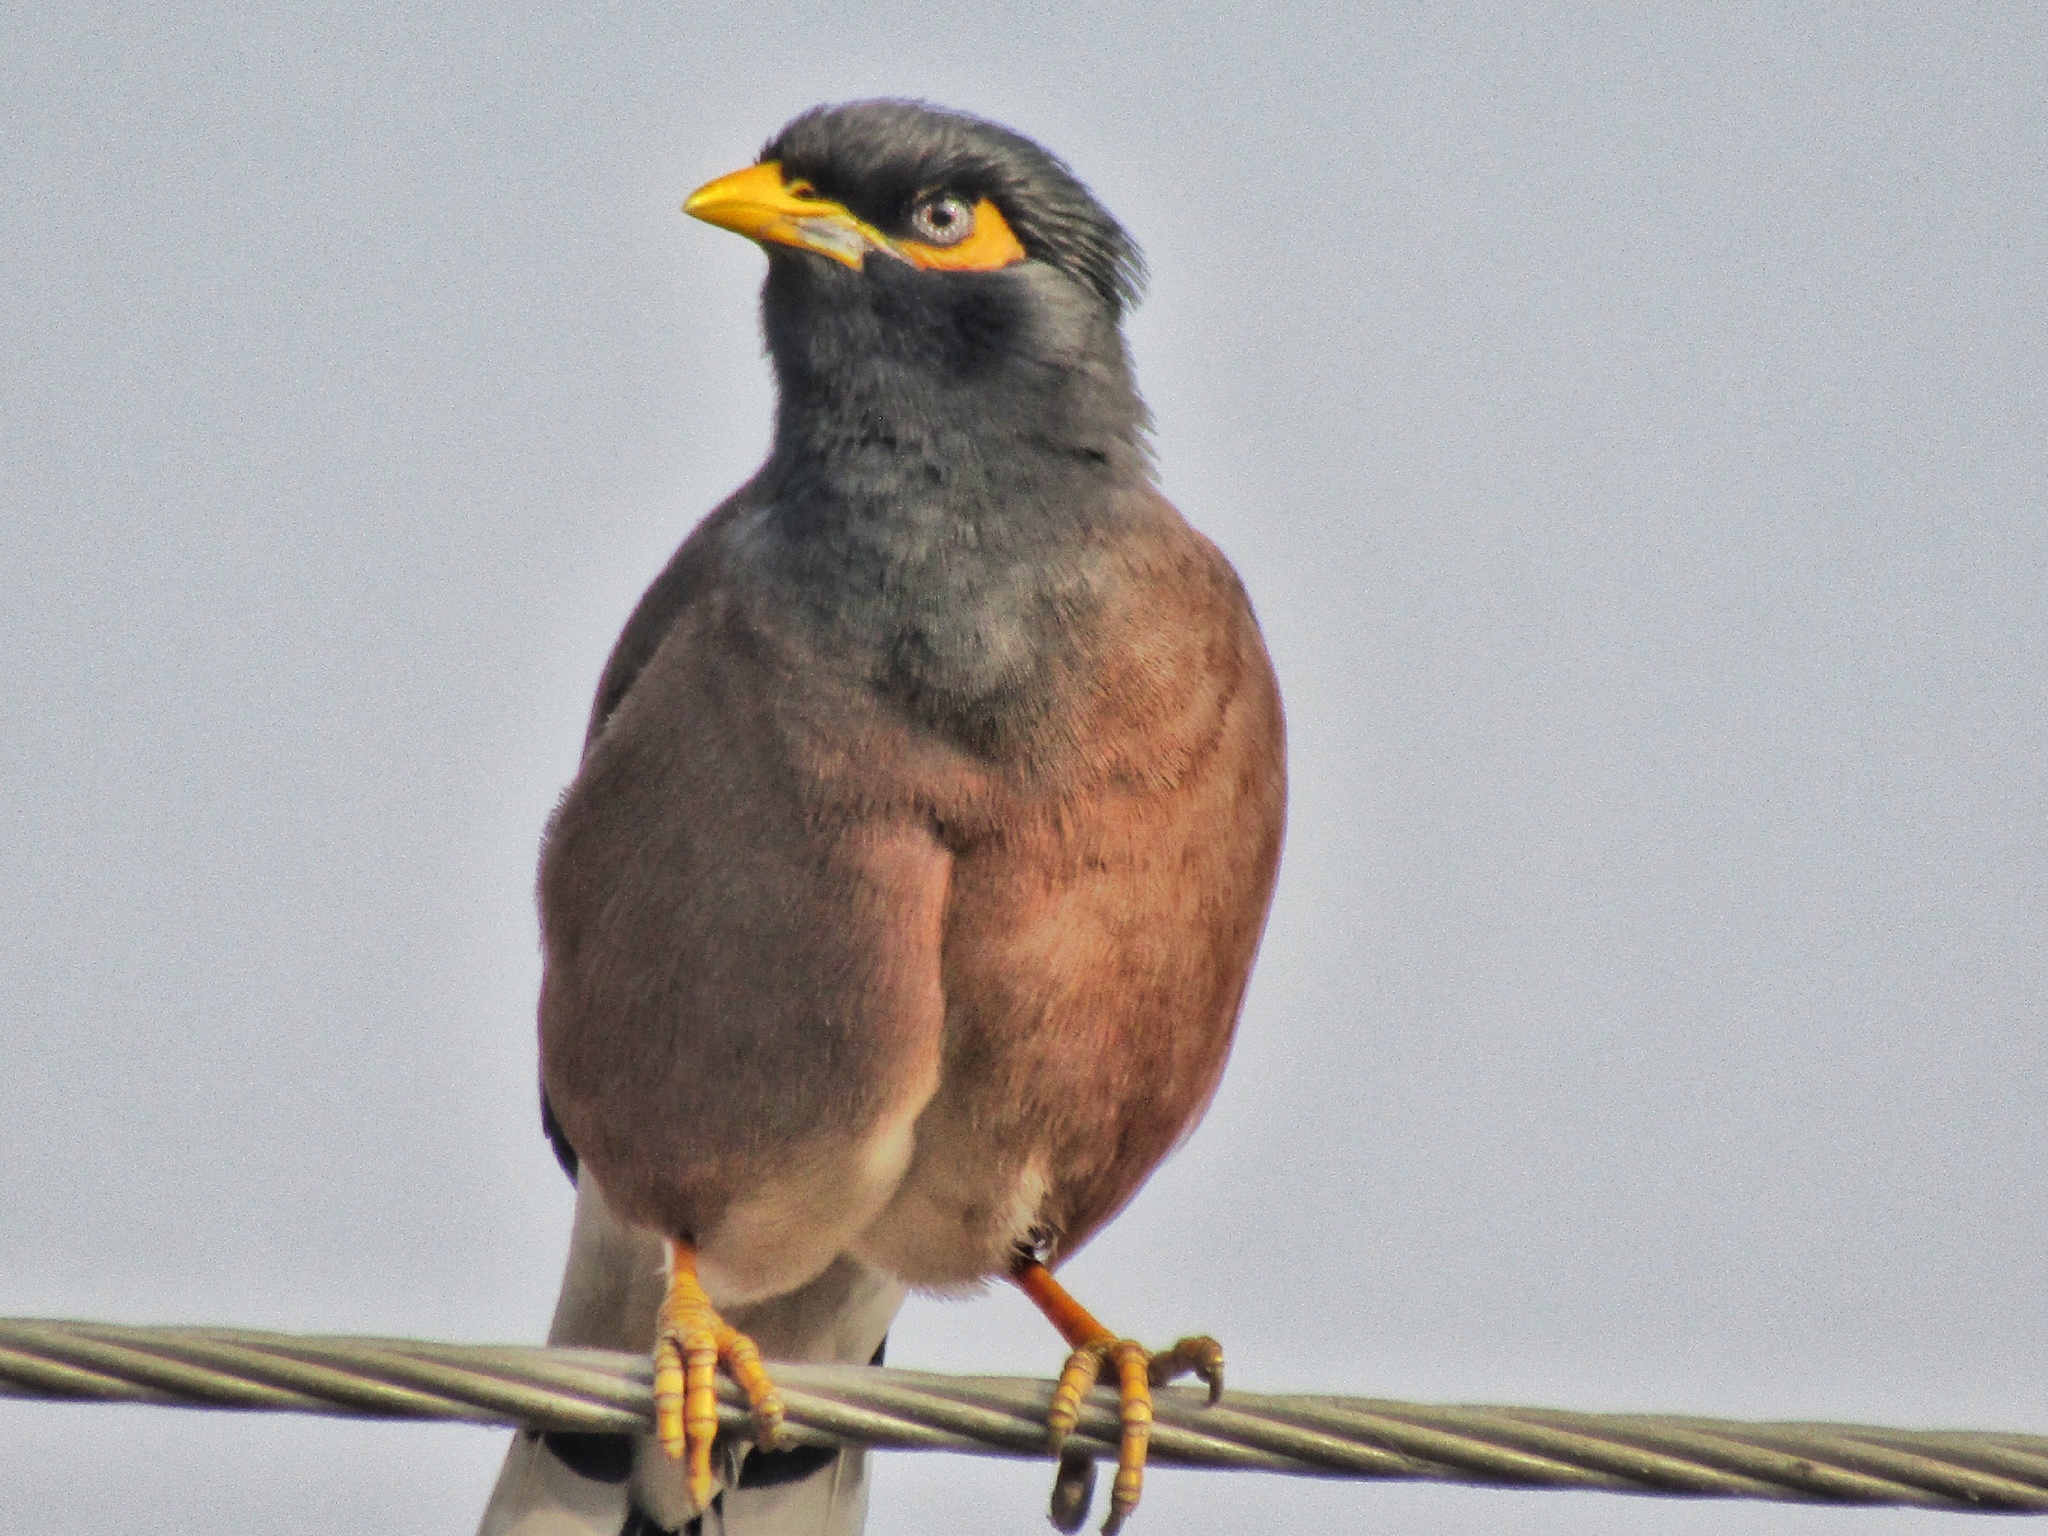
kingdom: Animalia
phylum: Chordata
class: Aves
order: Passeriformes
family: Sturnidae
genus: Acridotheres
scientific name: Acridotheres tristis
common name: Common myna
